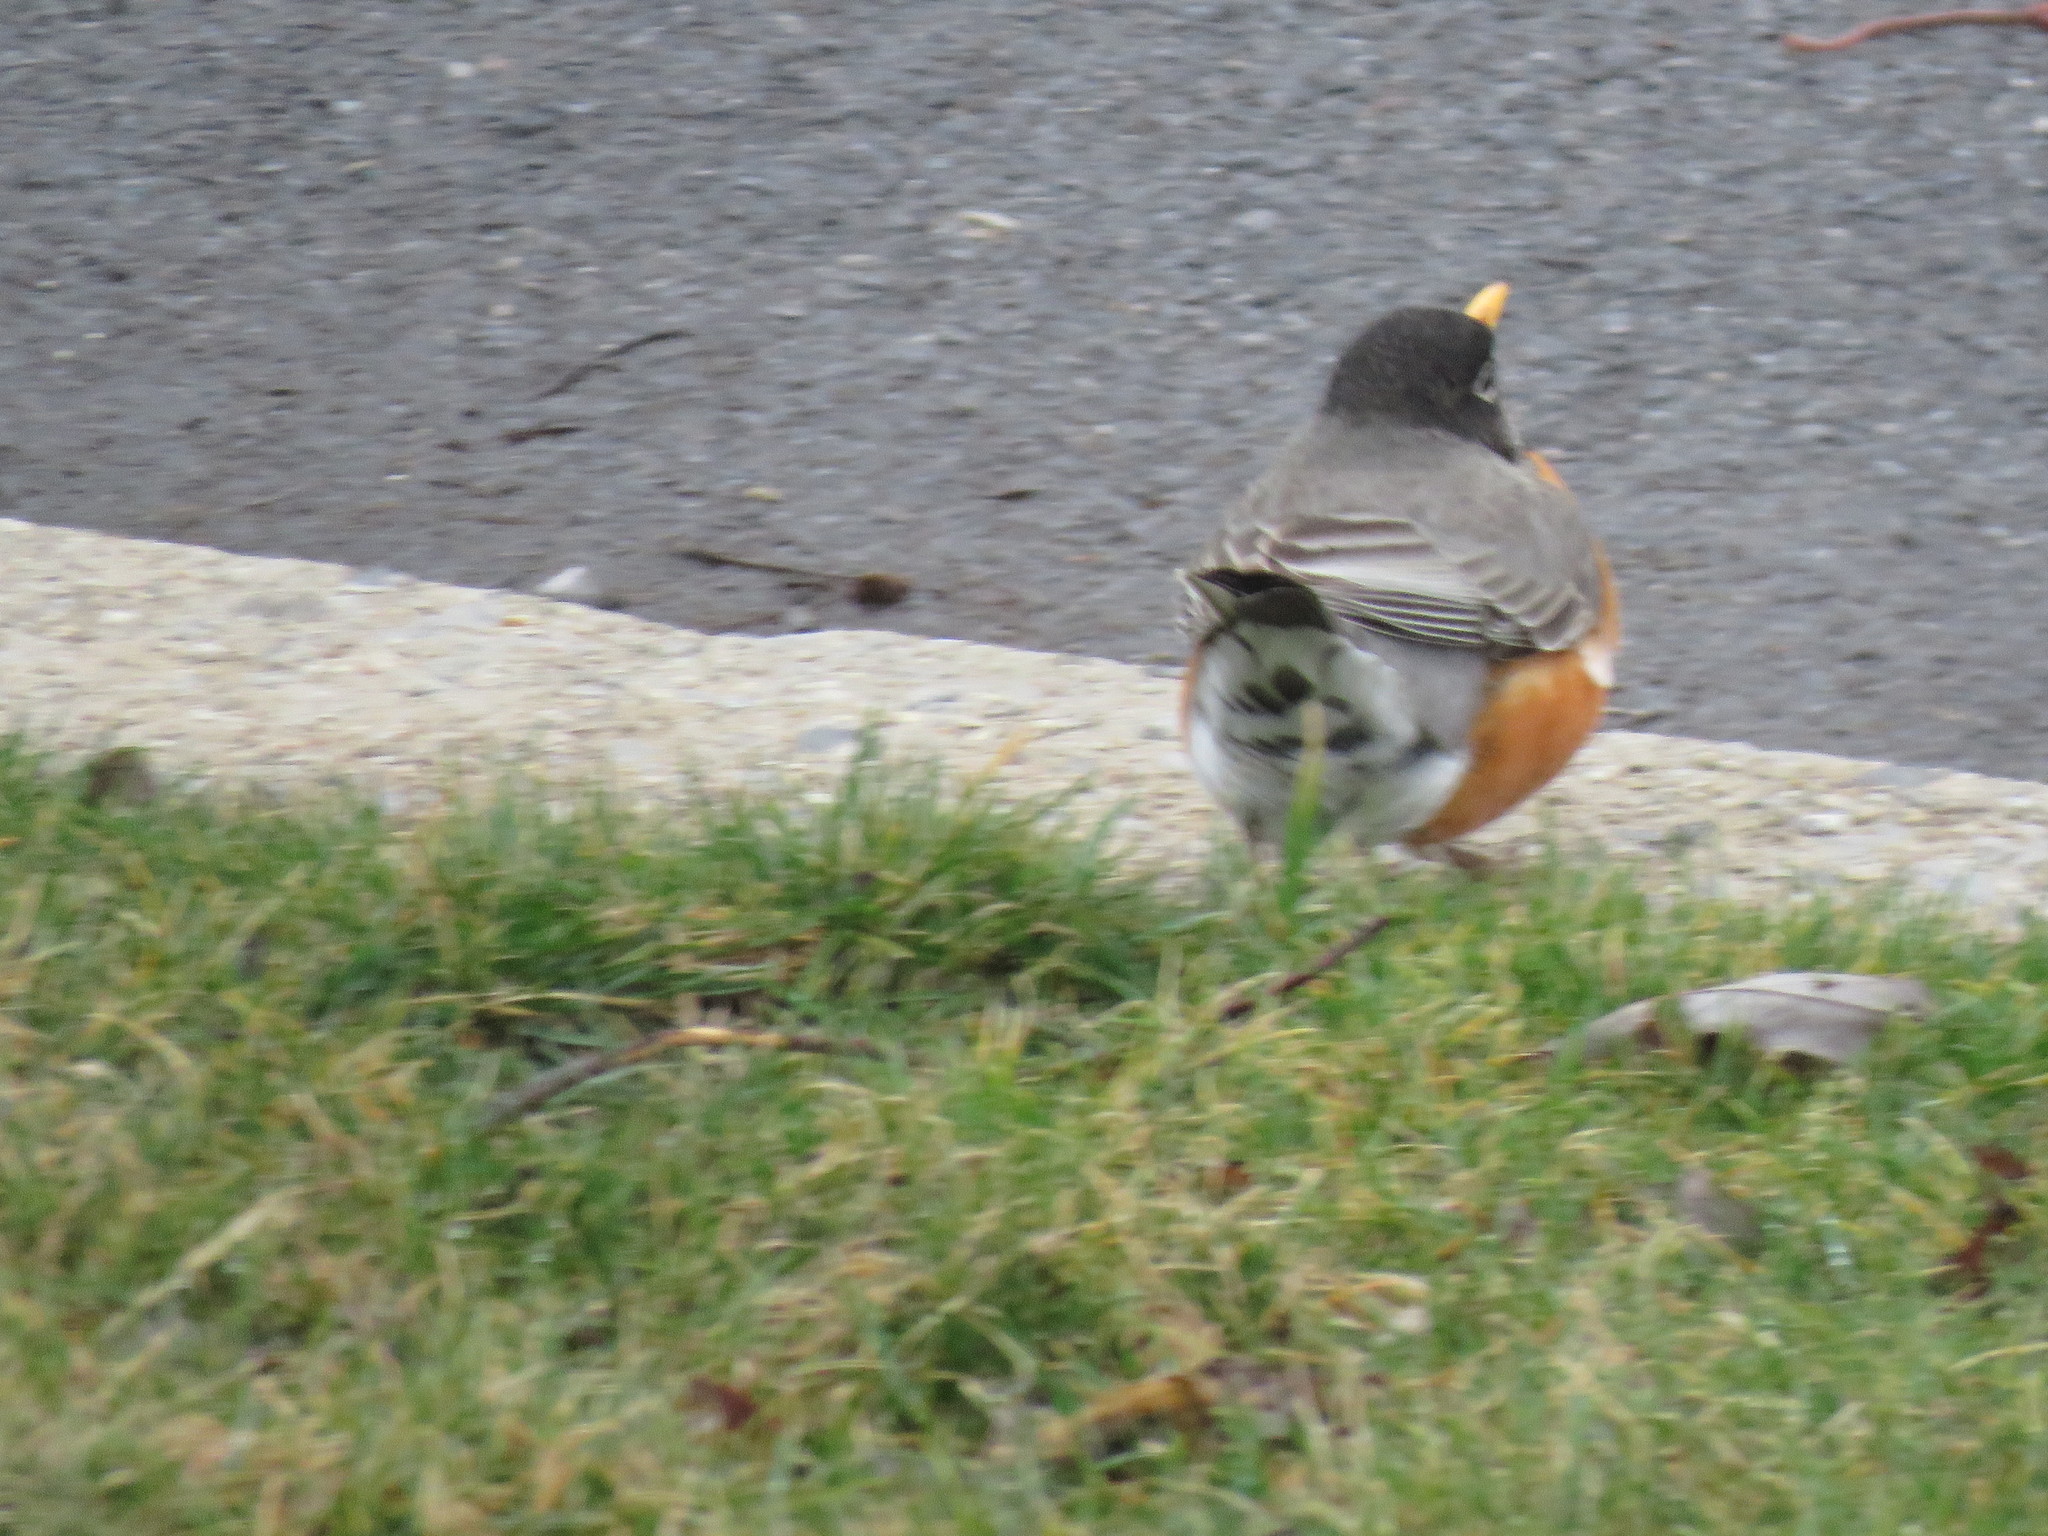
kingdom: Animalia
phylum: Chordata
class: Aves
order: Passeriformes
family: Turdidae
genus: Turdus
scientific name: Turdus migratorius
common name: American robin
